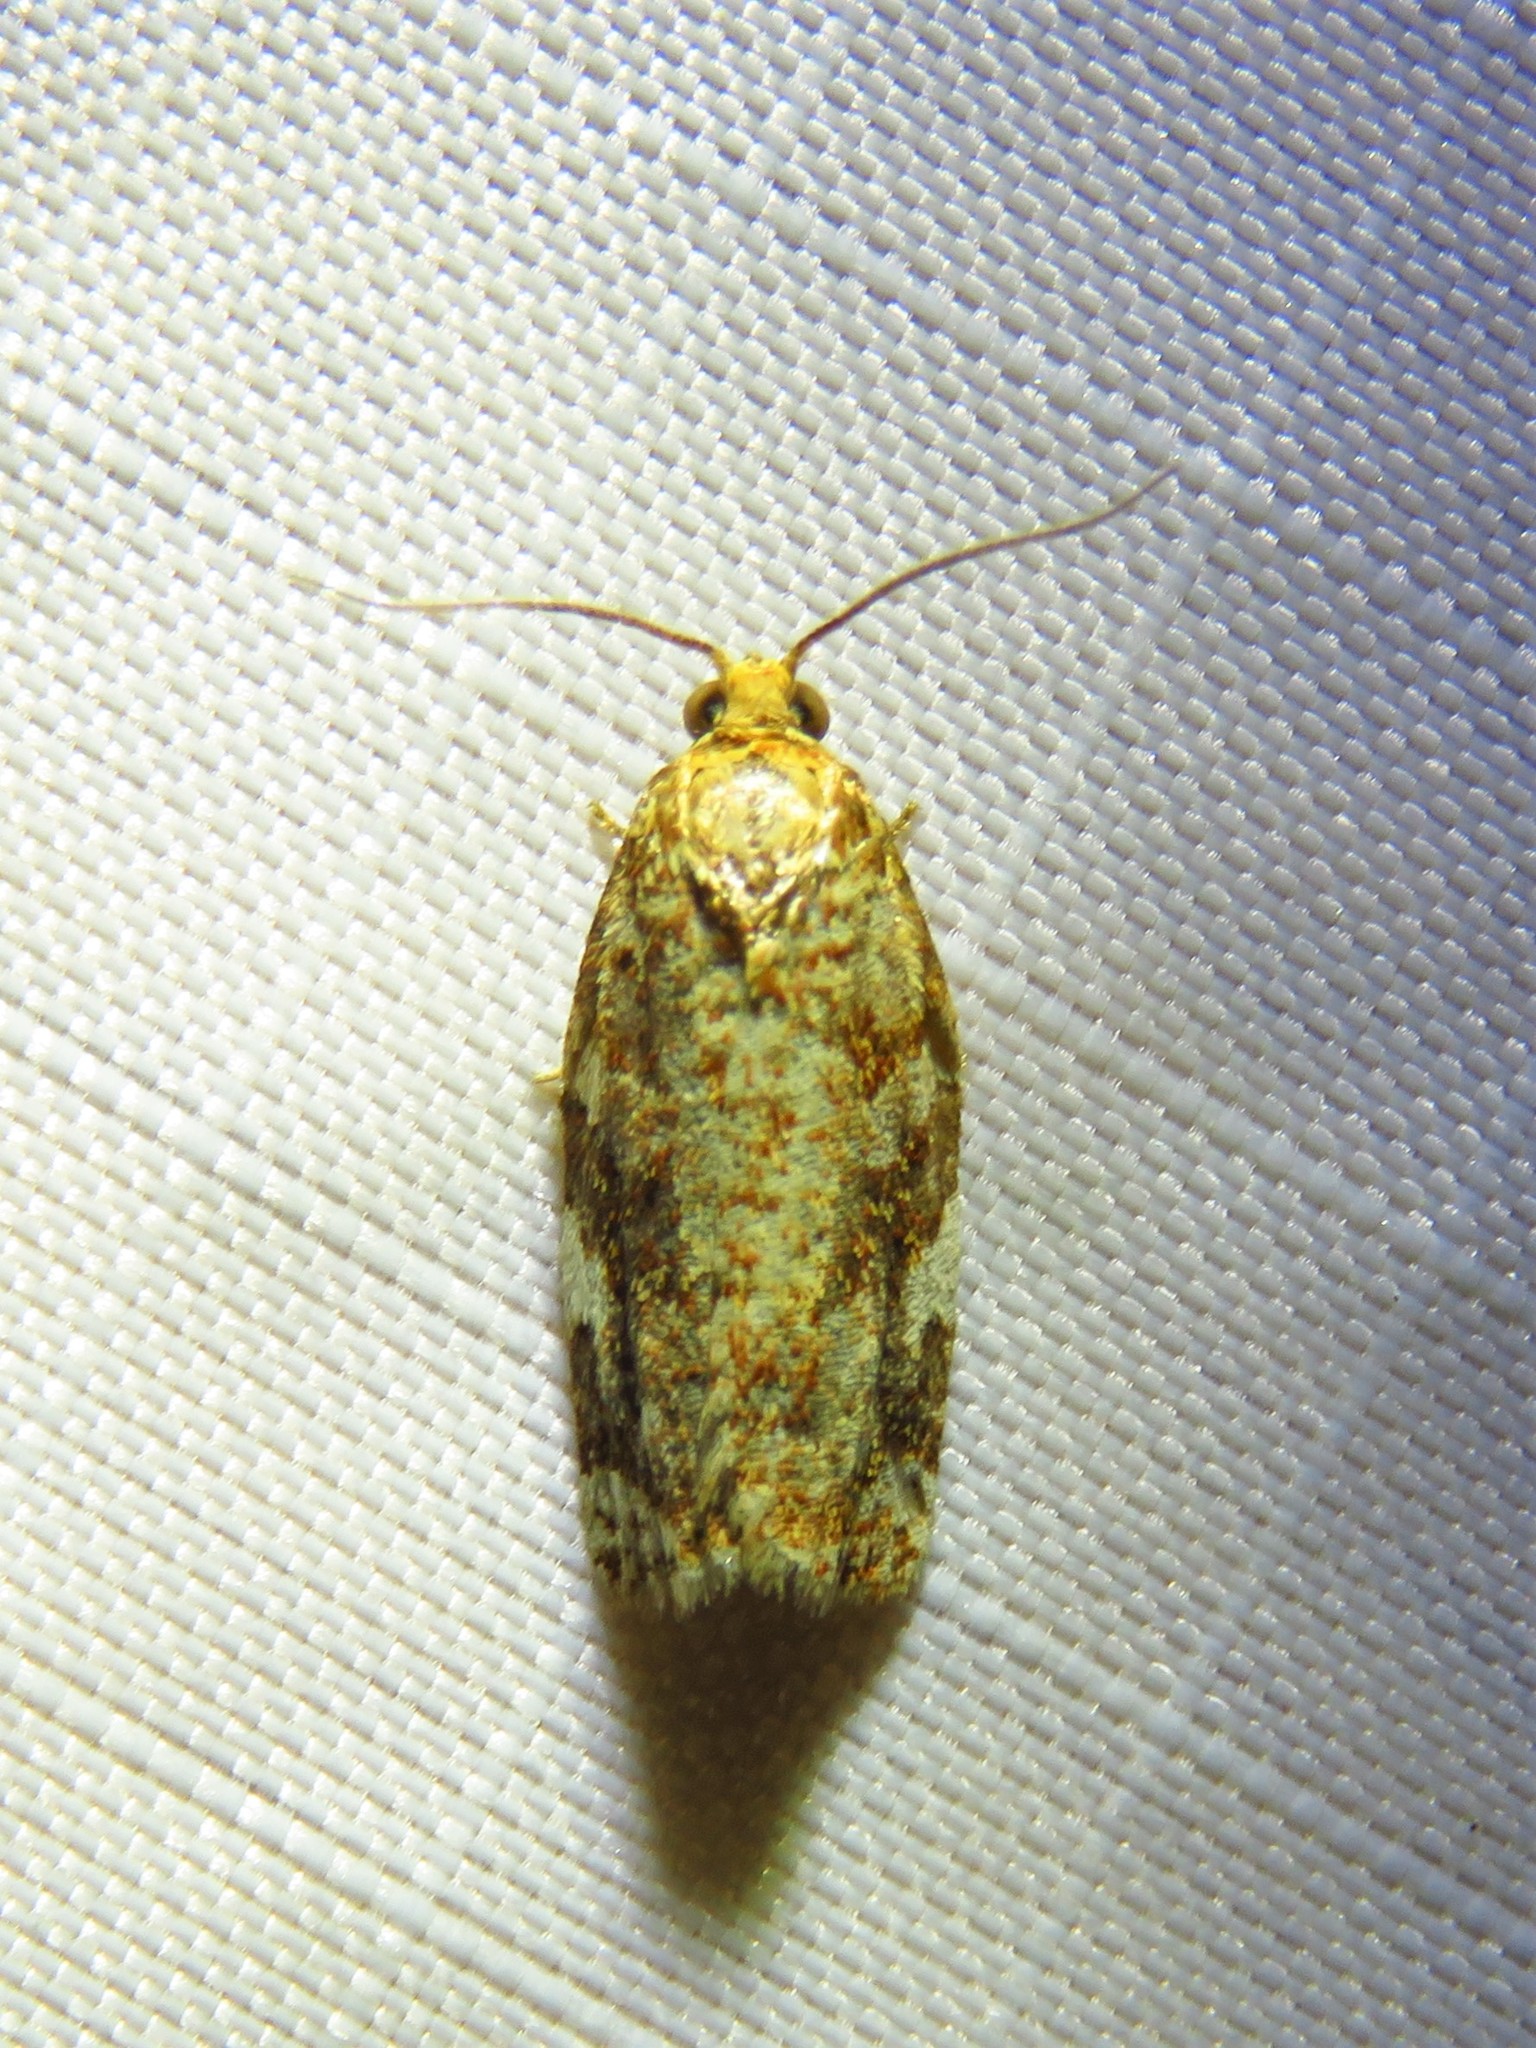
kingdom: Animalia
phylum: Arthropoda
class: Insecta
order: Lepidoptera
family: Tortricidae
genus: Archips
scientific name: Archips argyrospila
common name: Fruit-tree leafroller moth
